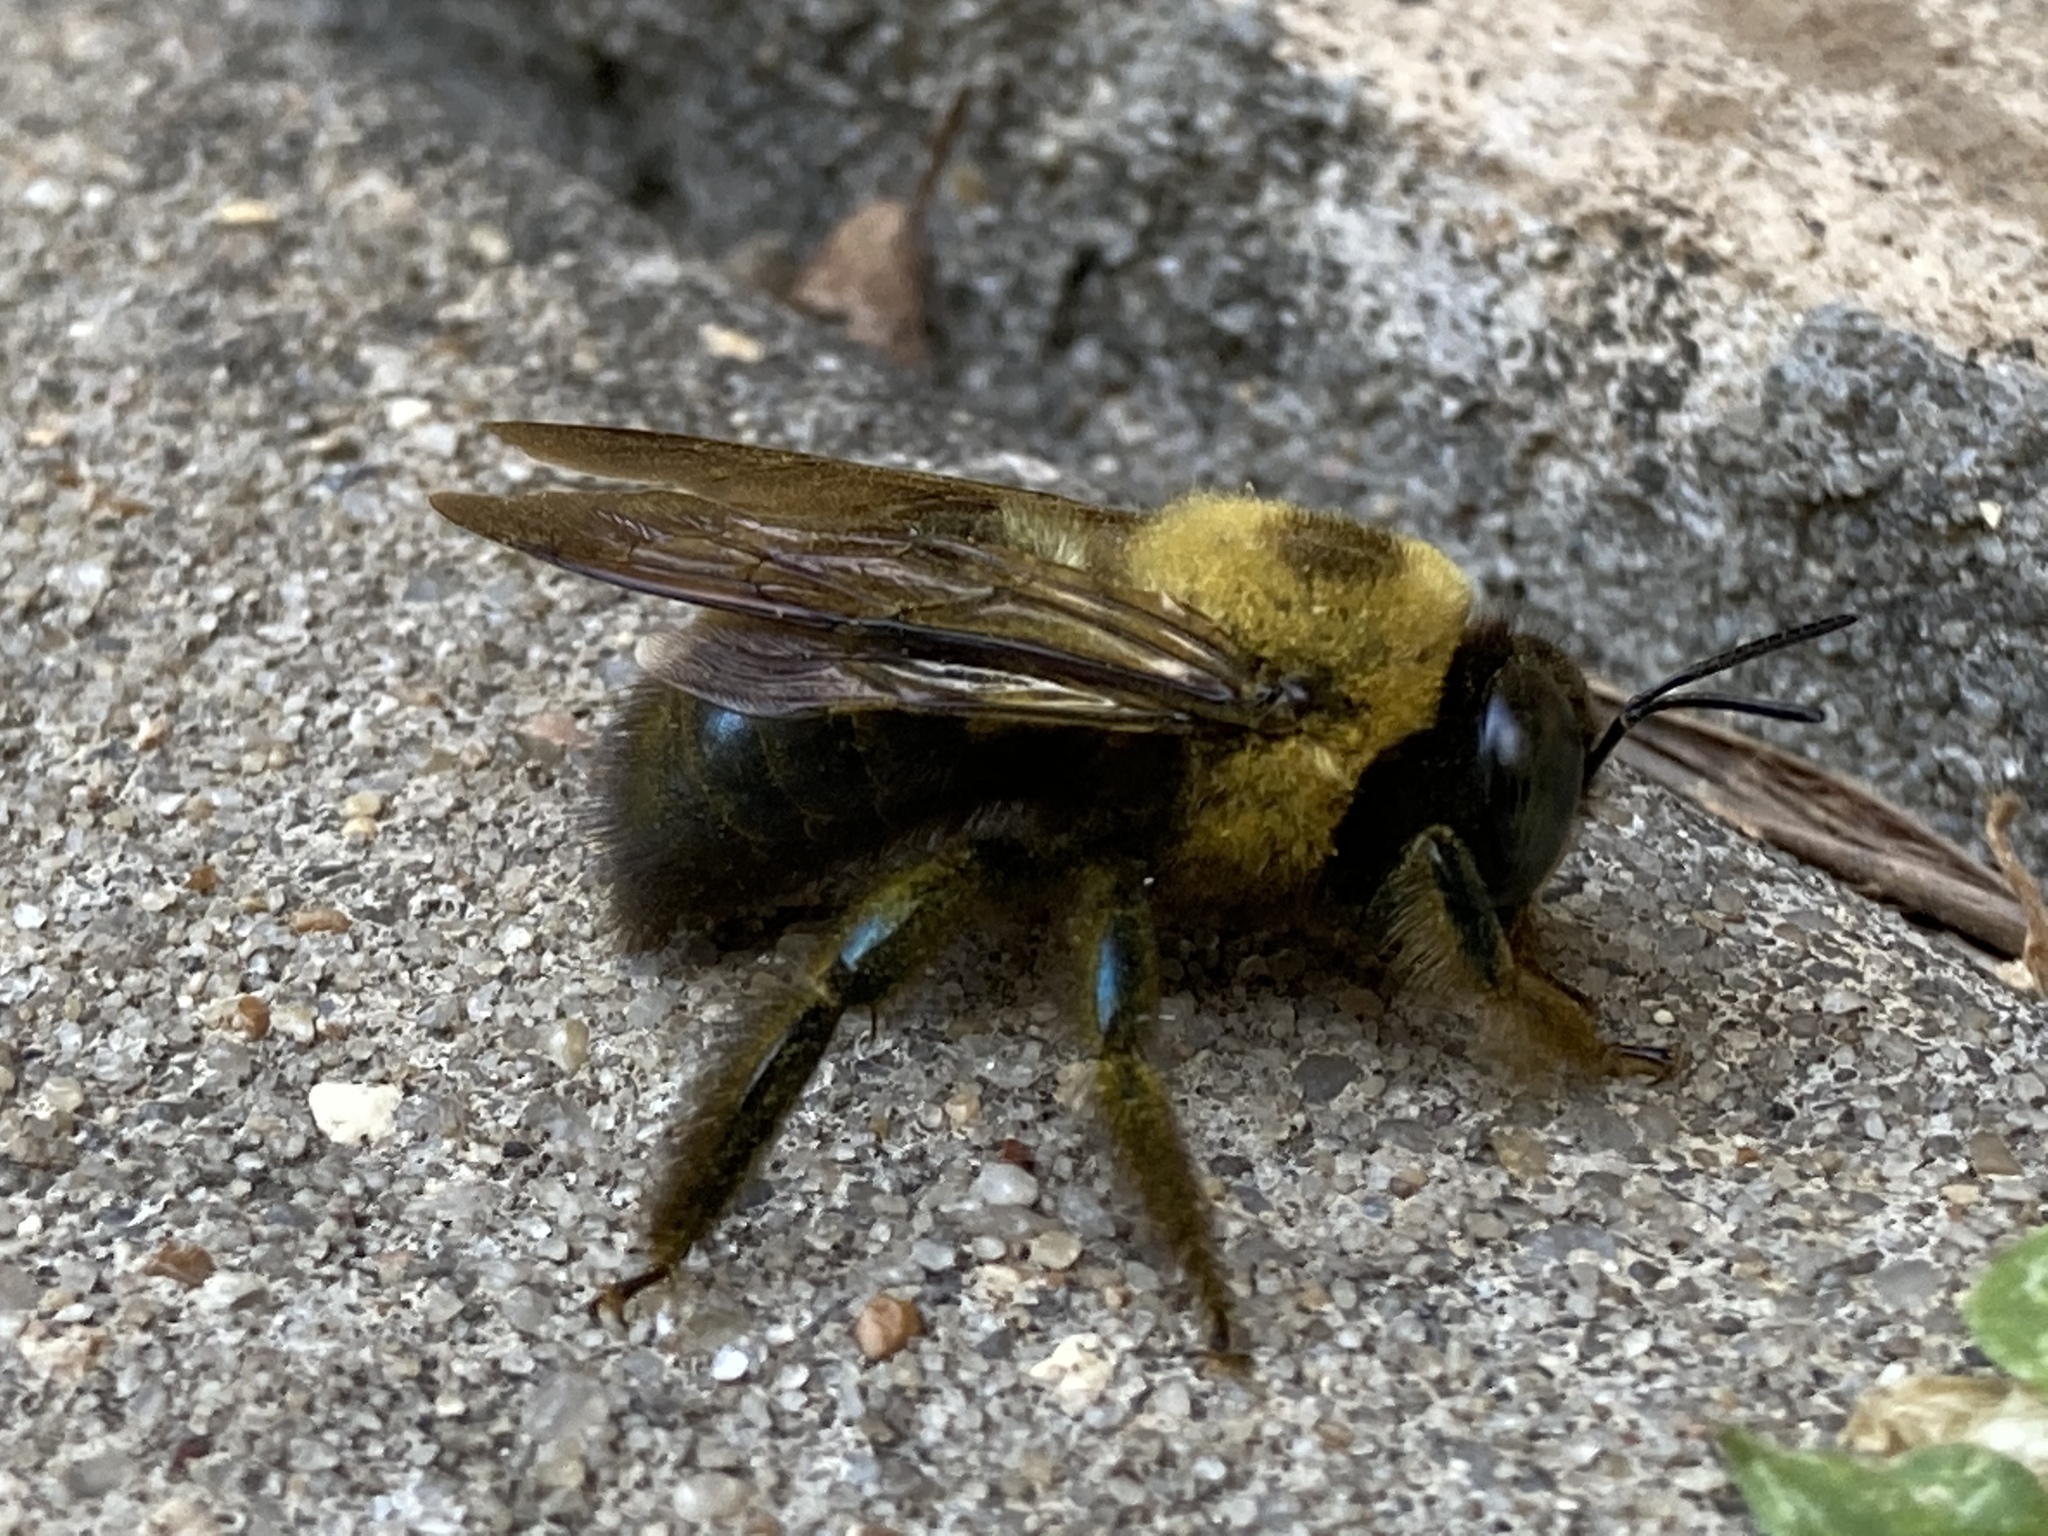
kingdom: Animalia
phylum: Arthropoda
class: Insecta
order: Hymenoptera
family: Apidae
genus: Xylocopa
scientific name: Xylocopa virginica
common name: Carpenter bee
